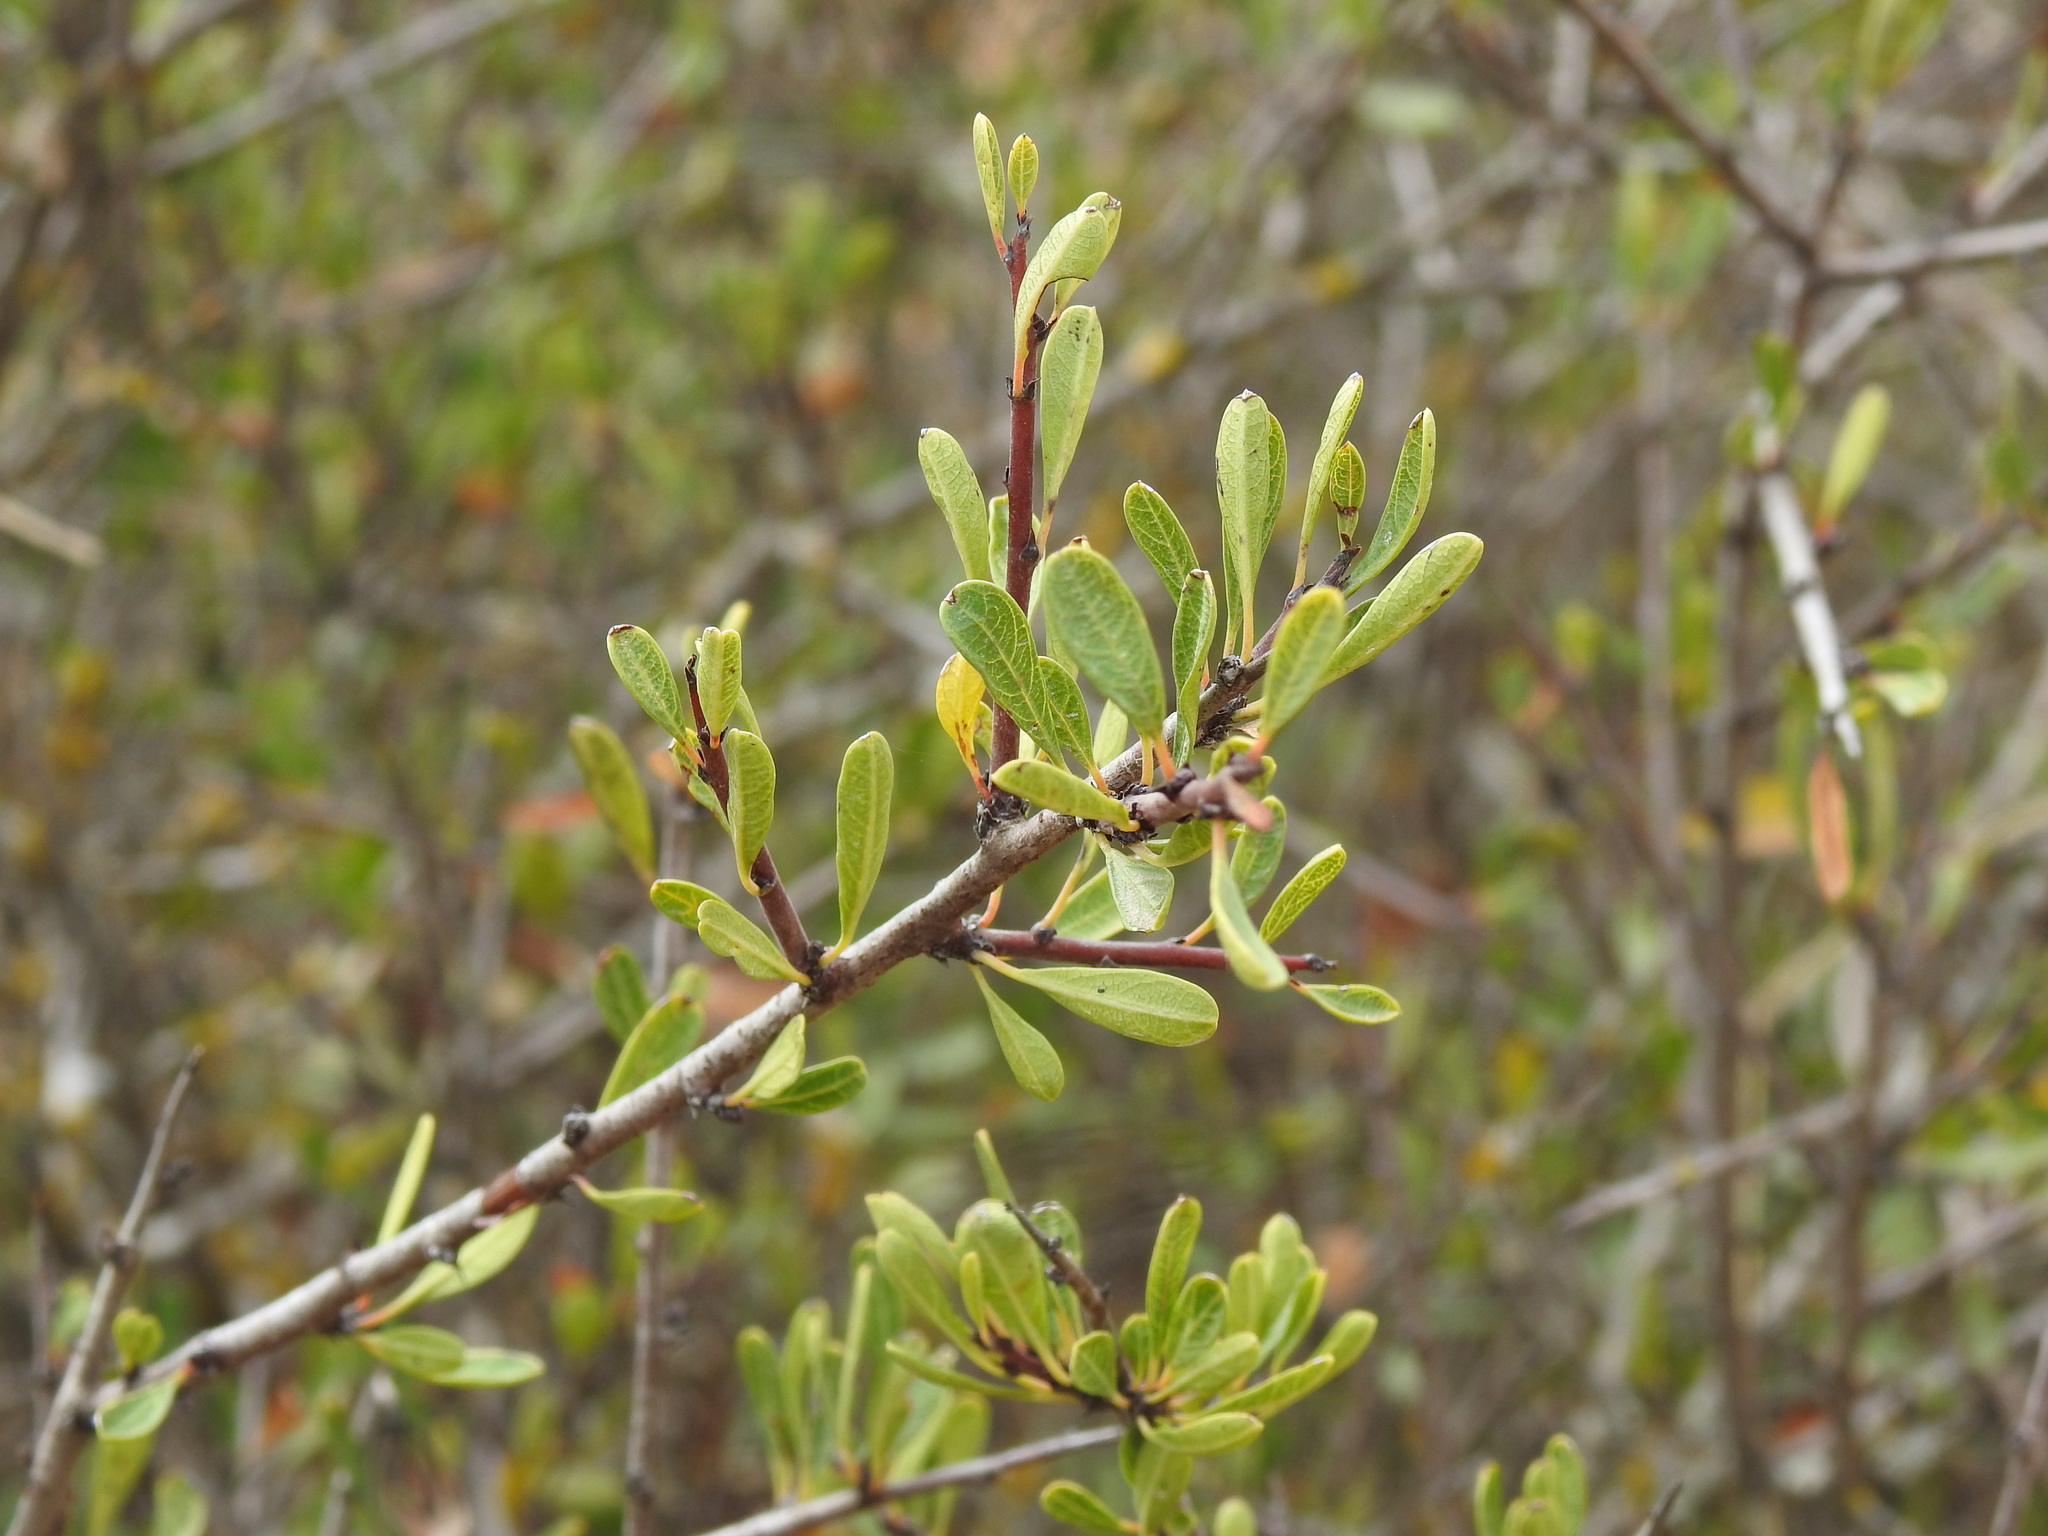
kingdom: Plantae
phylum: Tracheophyta
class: Magnoliopsida
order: Rosales
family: Rhamnaceae
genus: Rhamnus
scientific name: Rhamnus oleoides
